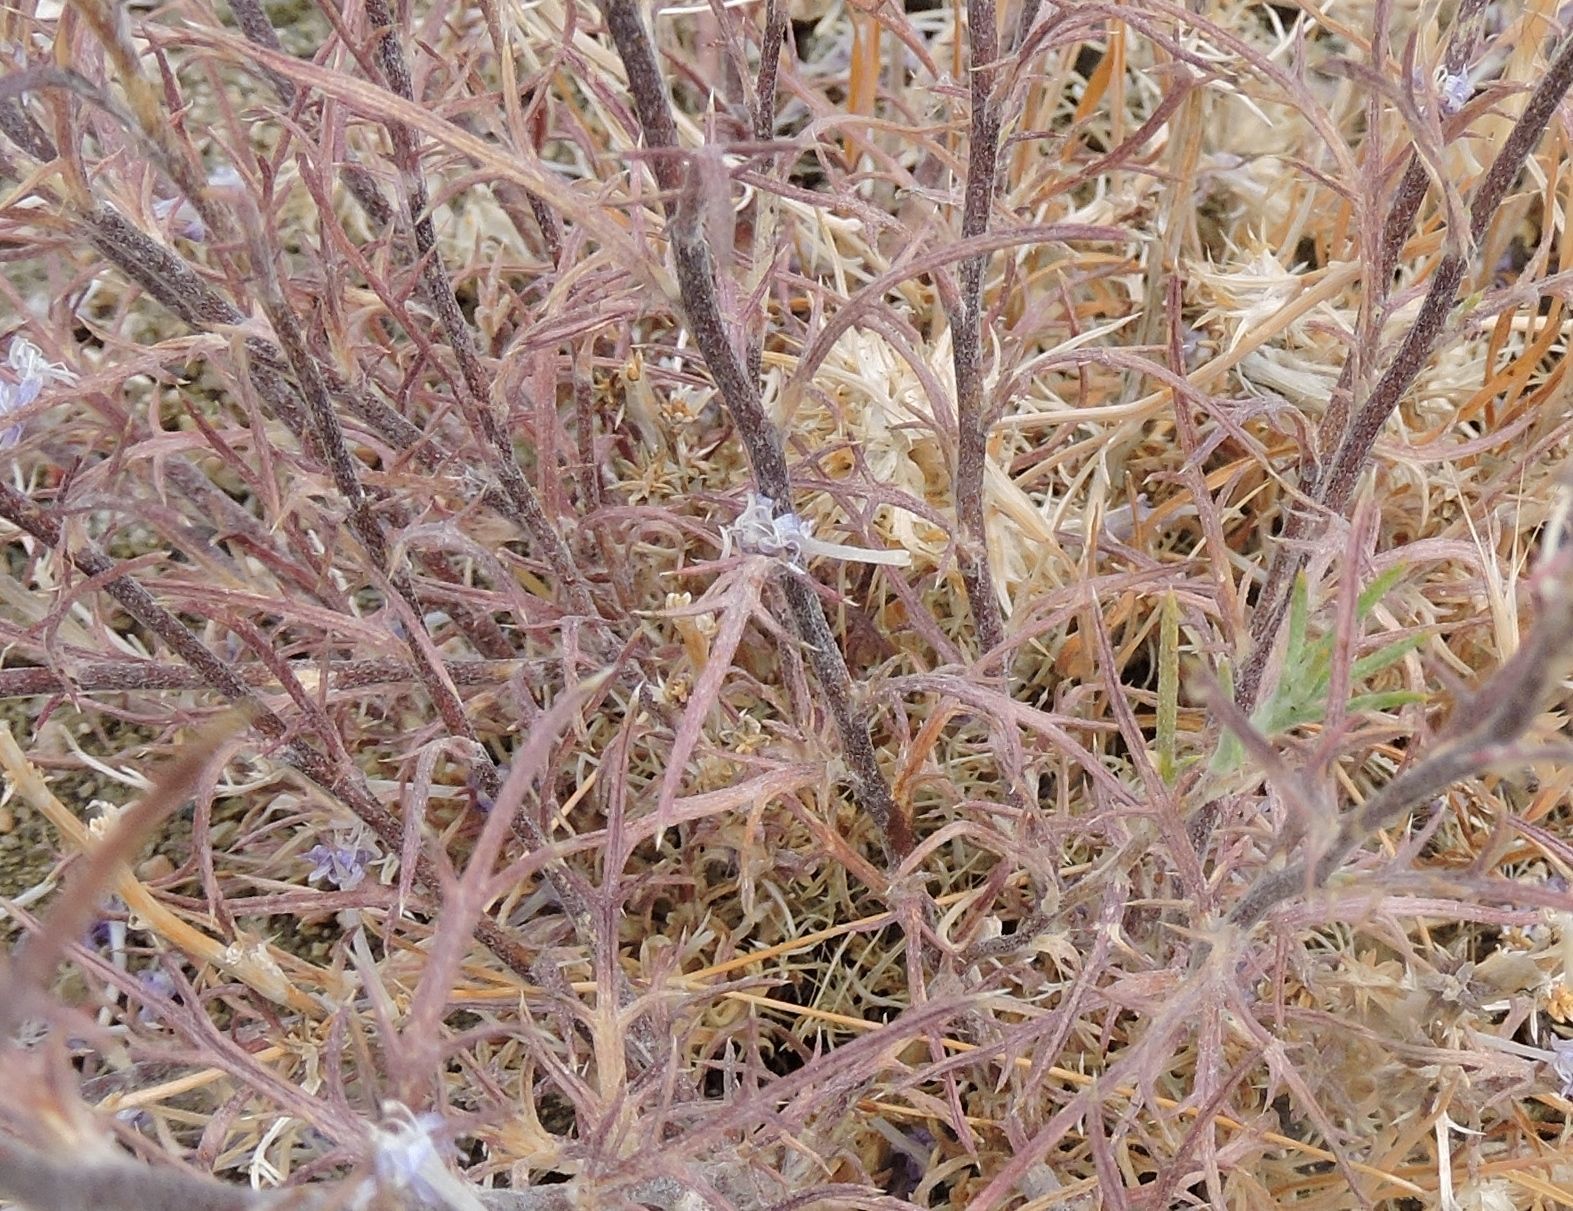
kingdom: Plantae
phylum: Tracheophyta
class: Magnoliopsida
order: Ericales
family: Polemoniaceae
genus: Eriastrum
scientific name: Eriastrum densifolium
